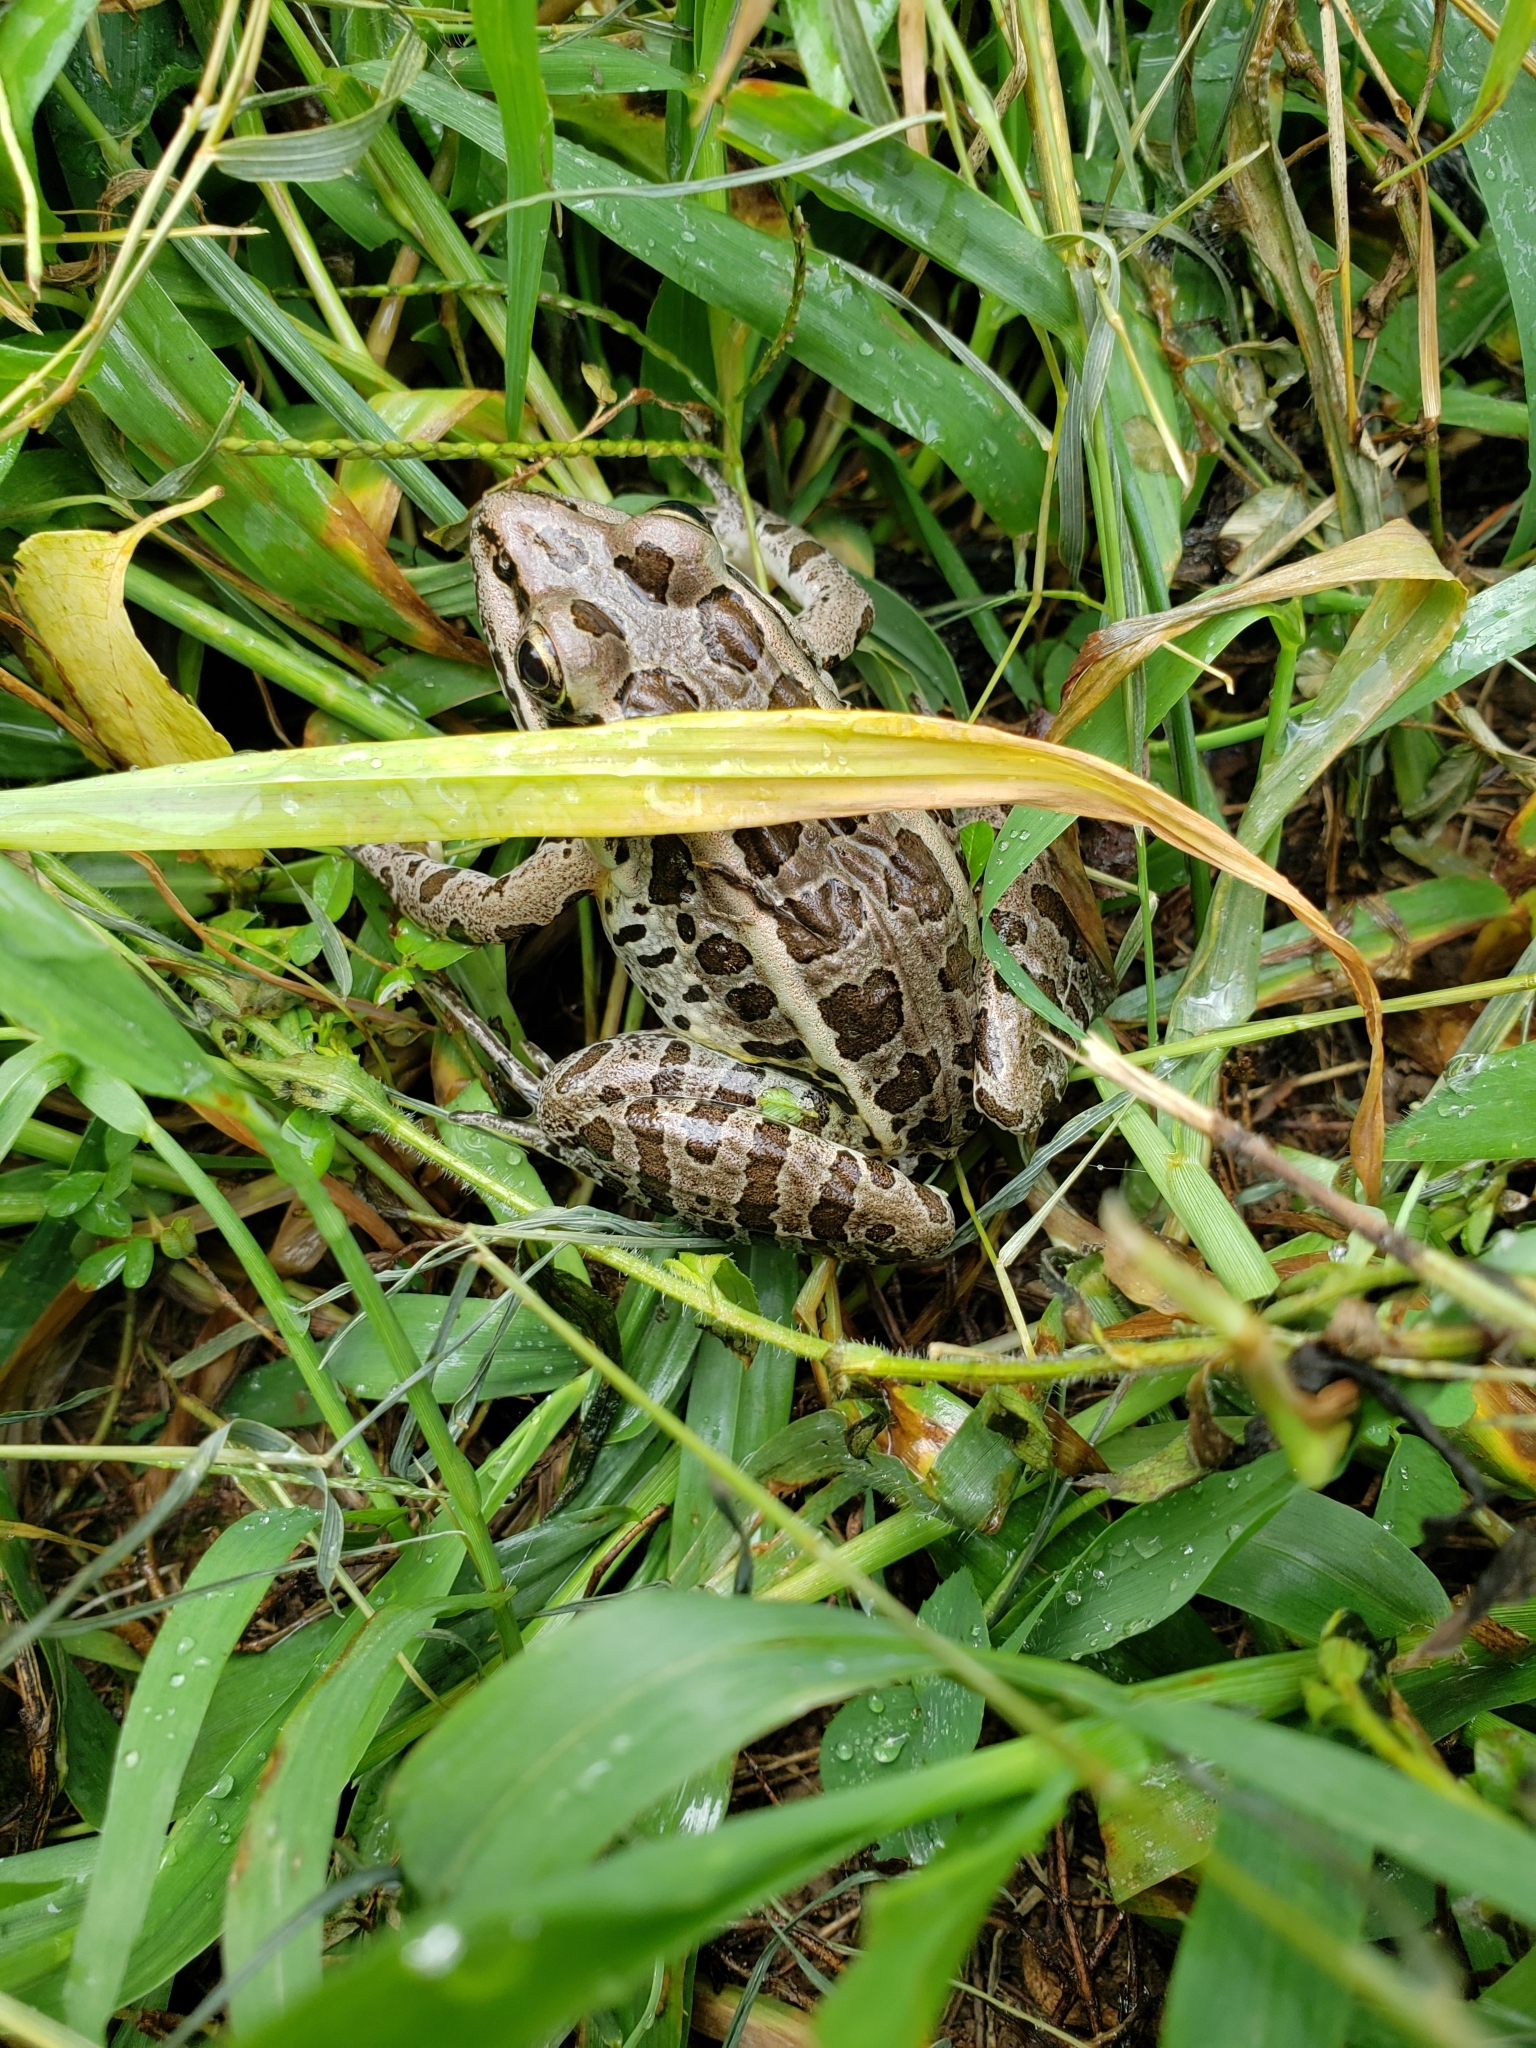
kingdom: Animalia
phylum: Chordata
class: Amphibia
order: Anura
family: Ranidae
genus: Lithobates
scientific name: Lithobates palustris
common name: Pickerel frog
